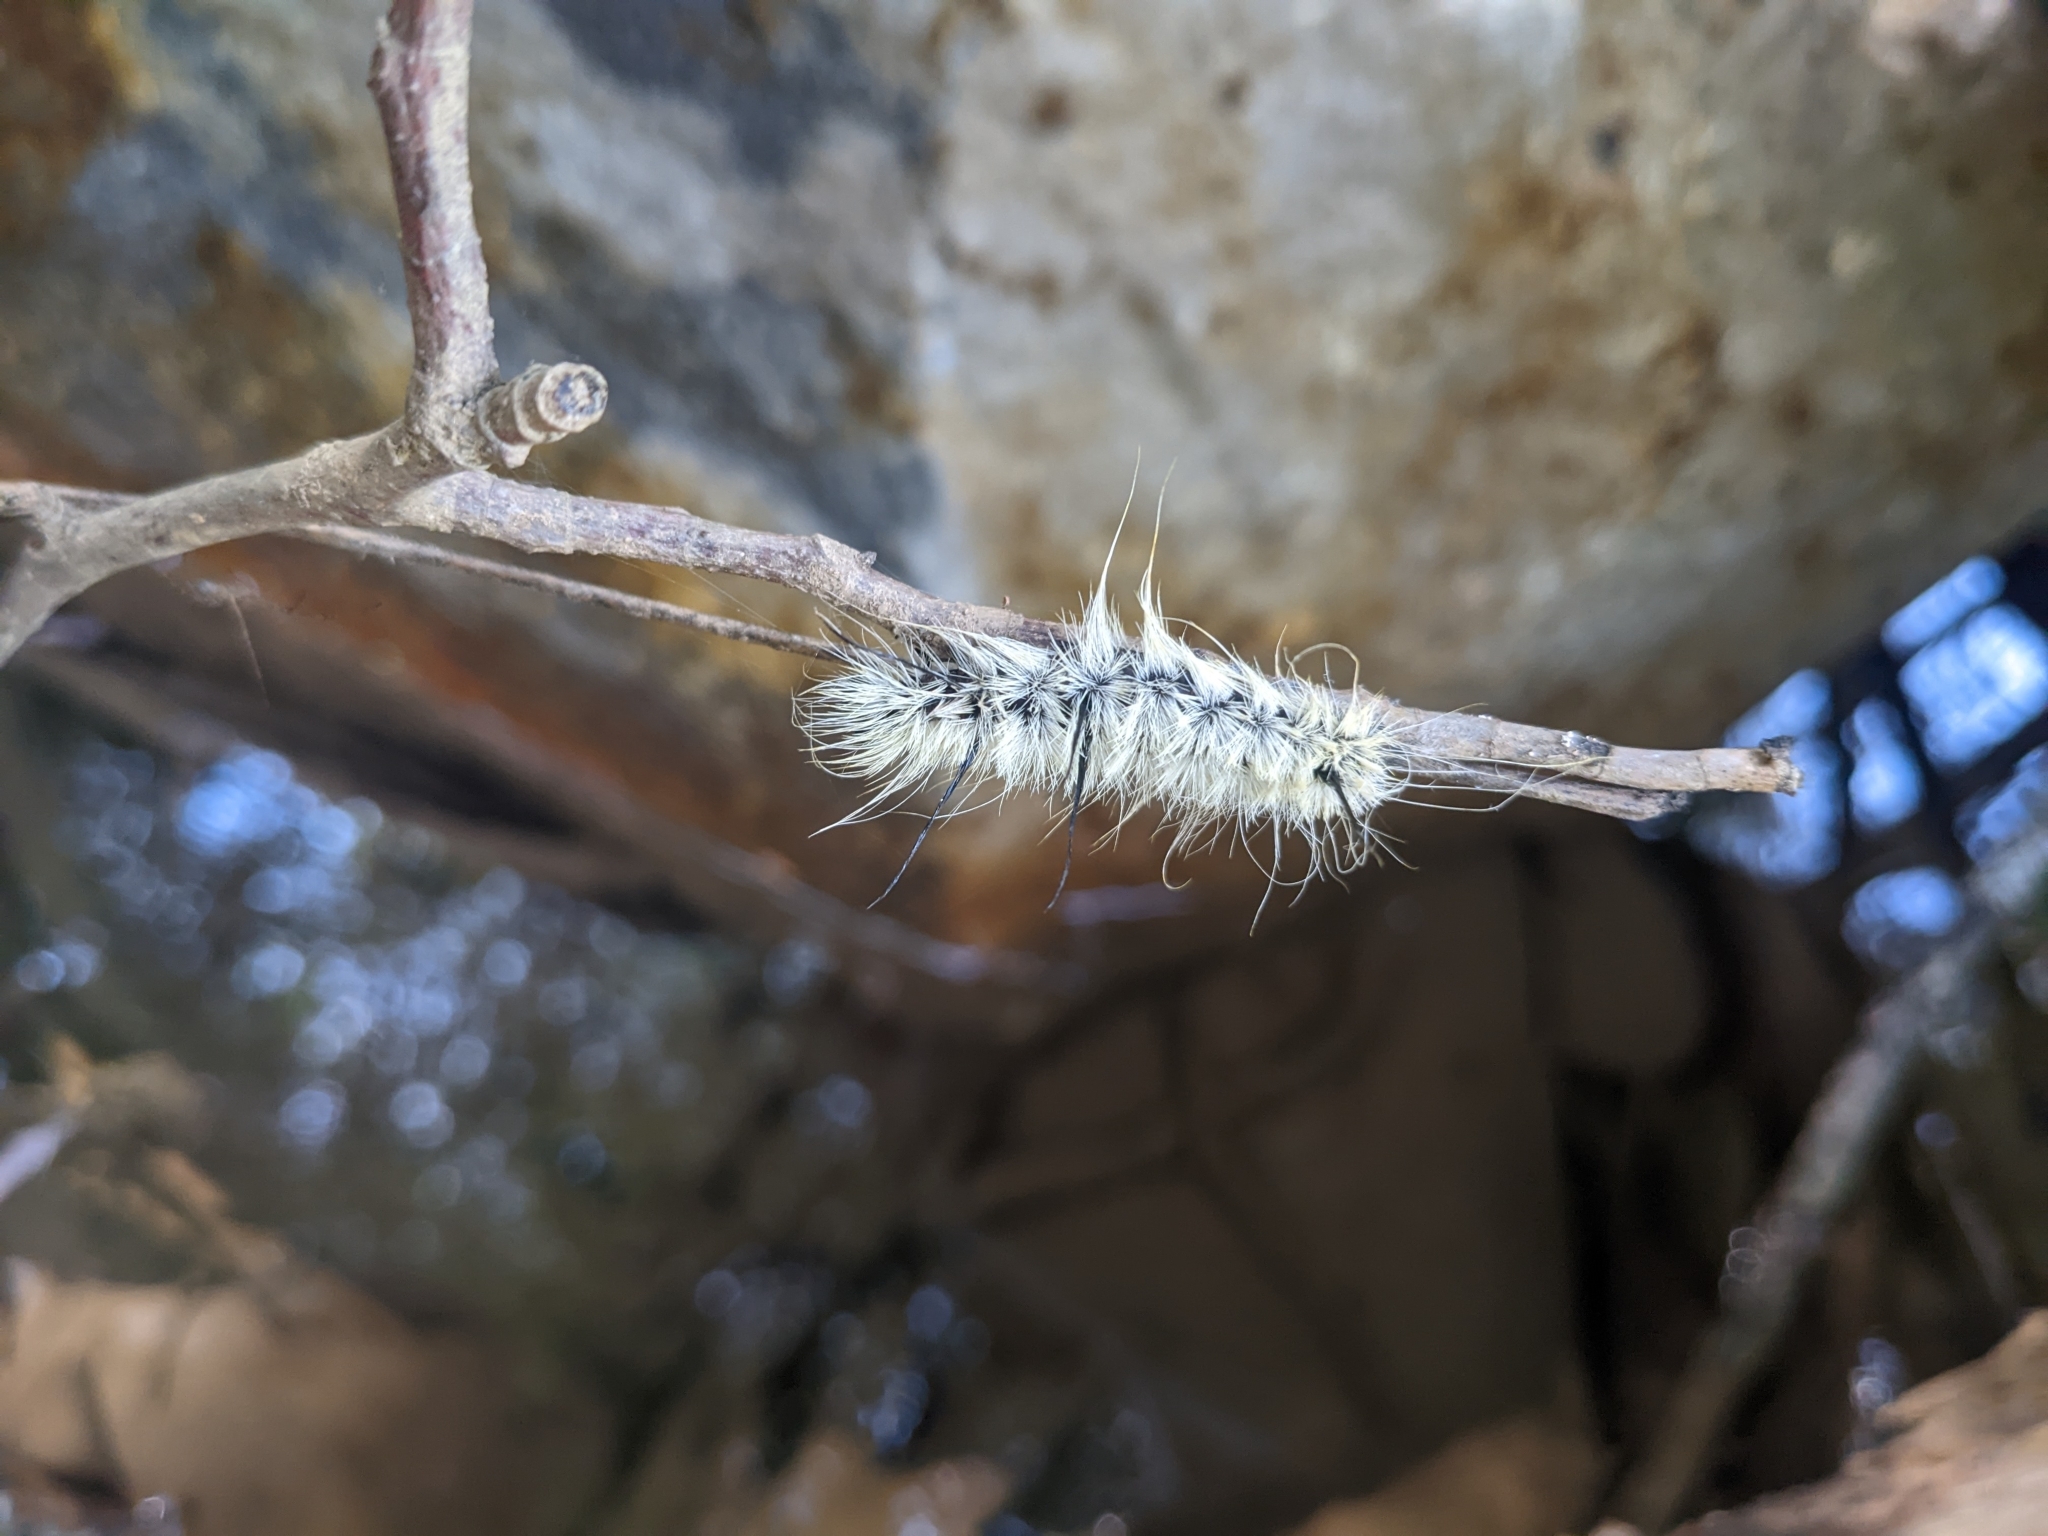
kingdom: Animalia
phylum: Arthropoda
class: Insecta
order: Lepidoptera
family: Noctuidae
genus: Acronicta
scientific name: Acronicta americana
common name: American dagger
